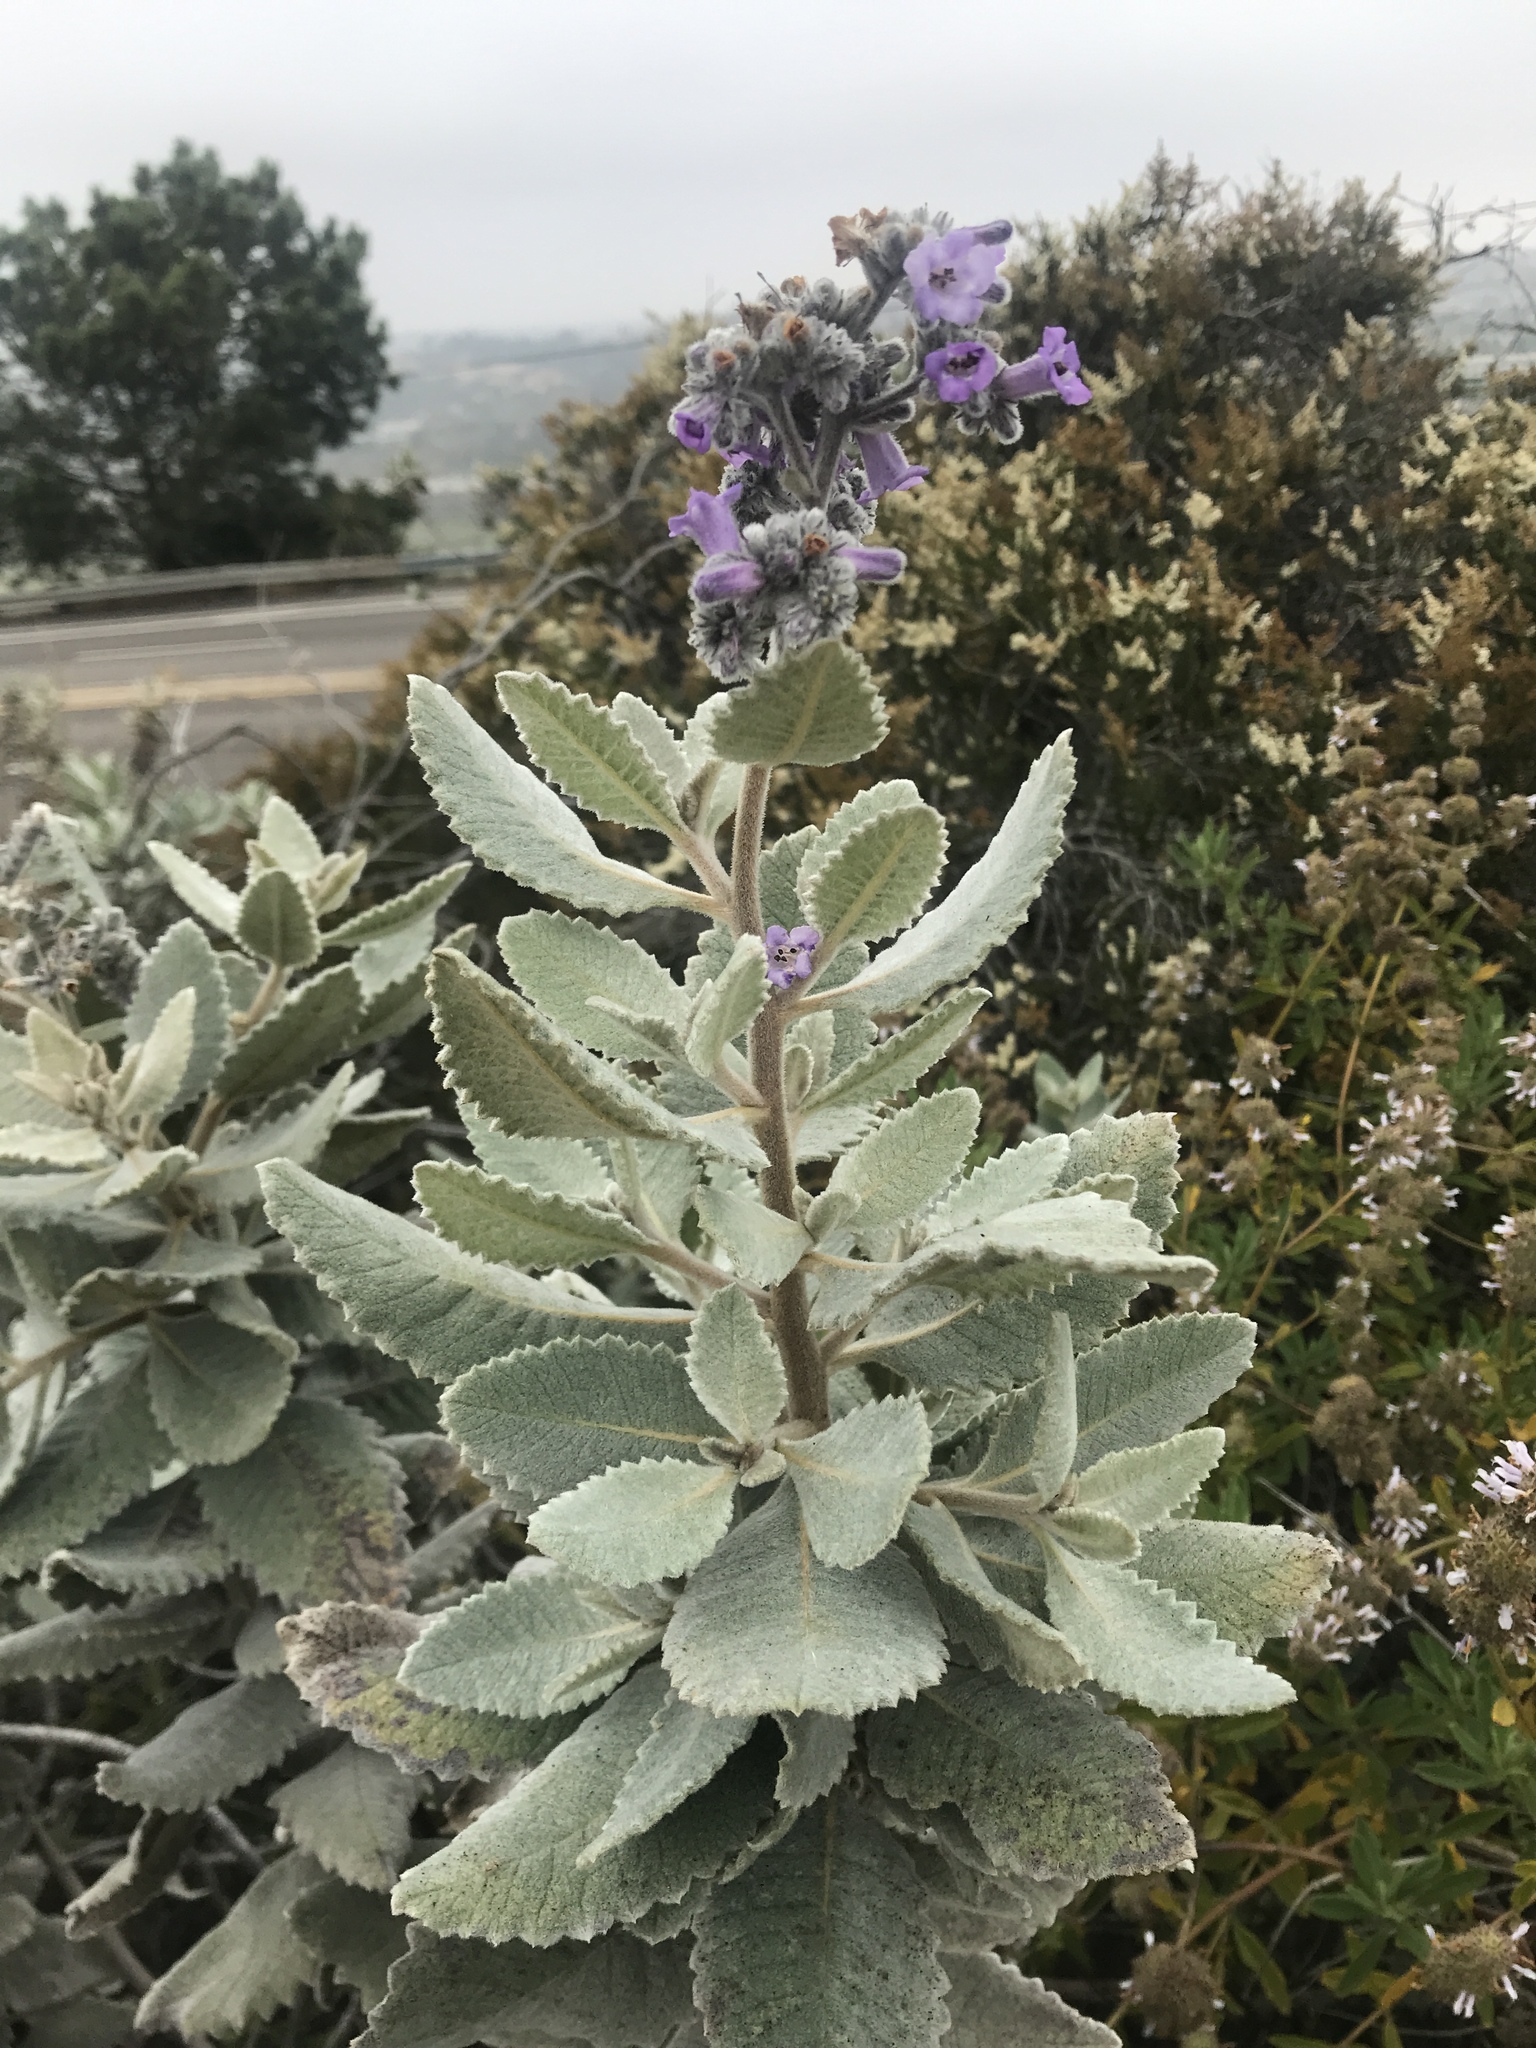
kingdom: Plantae
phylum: Tracheophyta
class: Magnoliopsida
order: Boraginales
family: Namaceae
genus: Eriodictyon
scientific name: Eriodictyon crassifolium
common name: Thick-leaf yerba-santa
